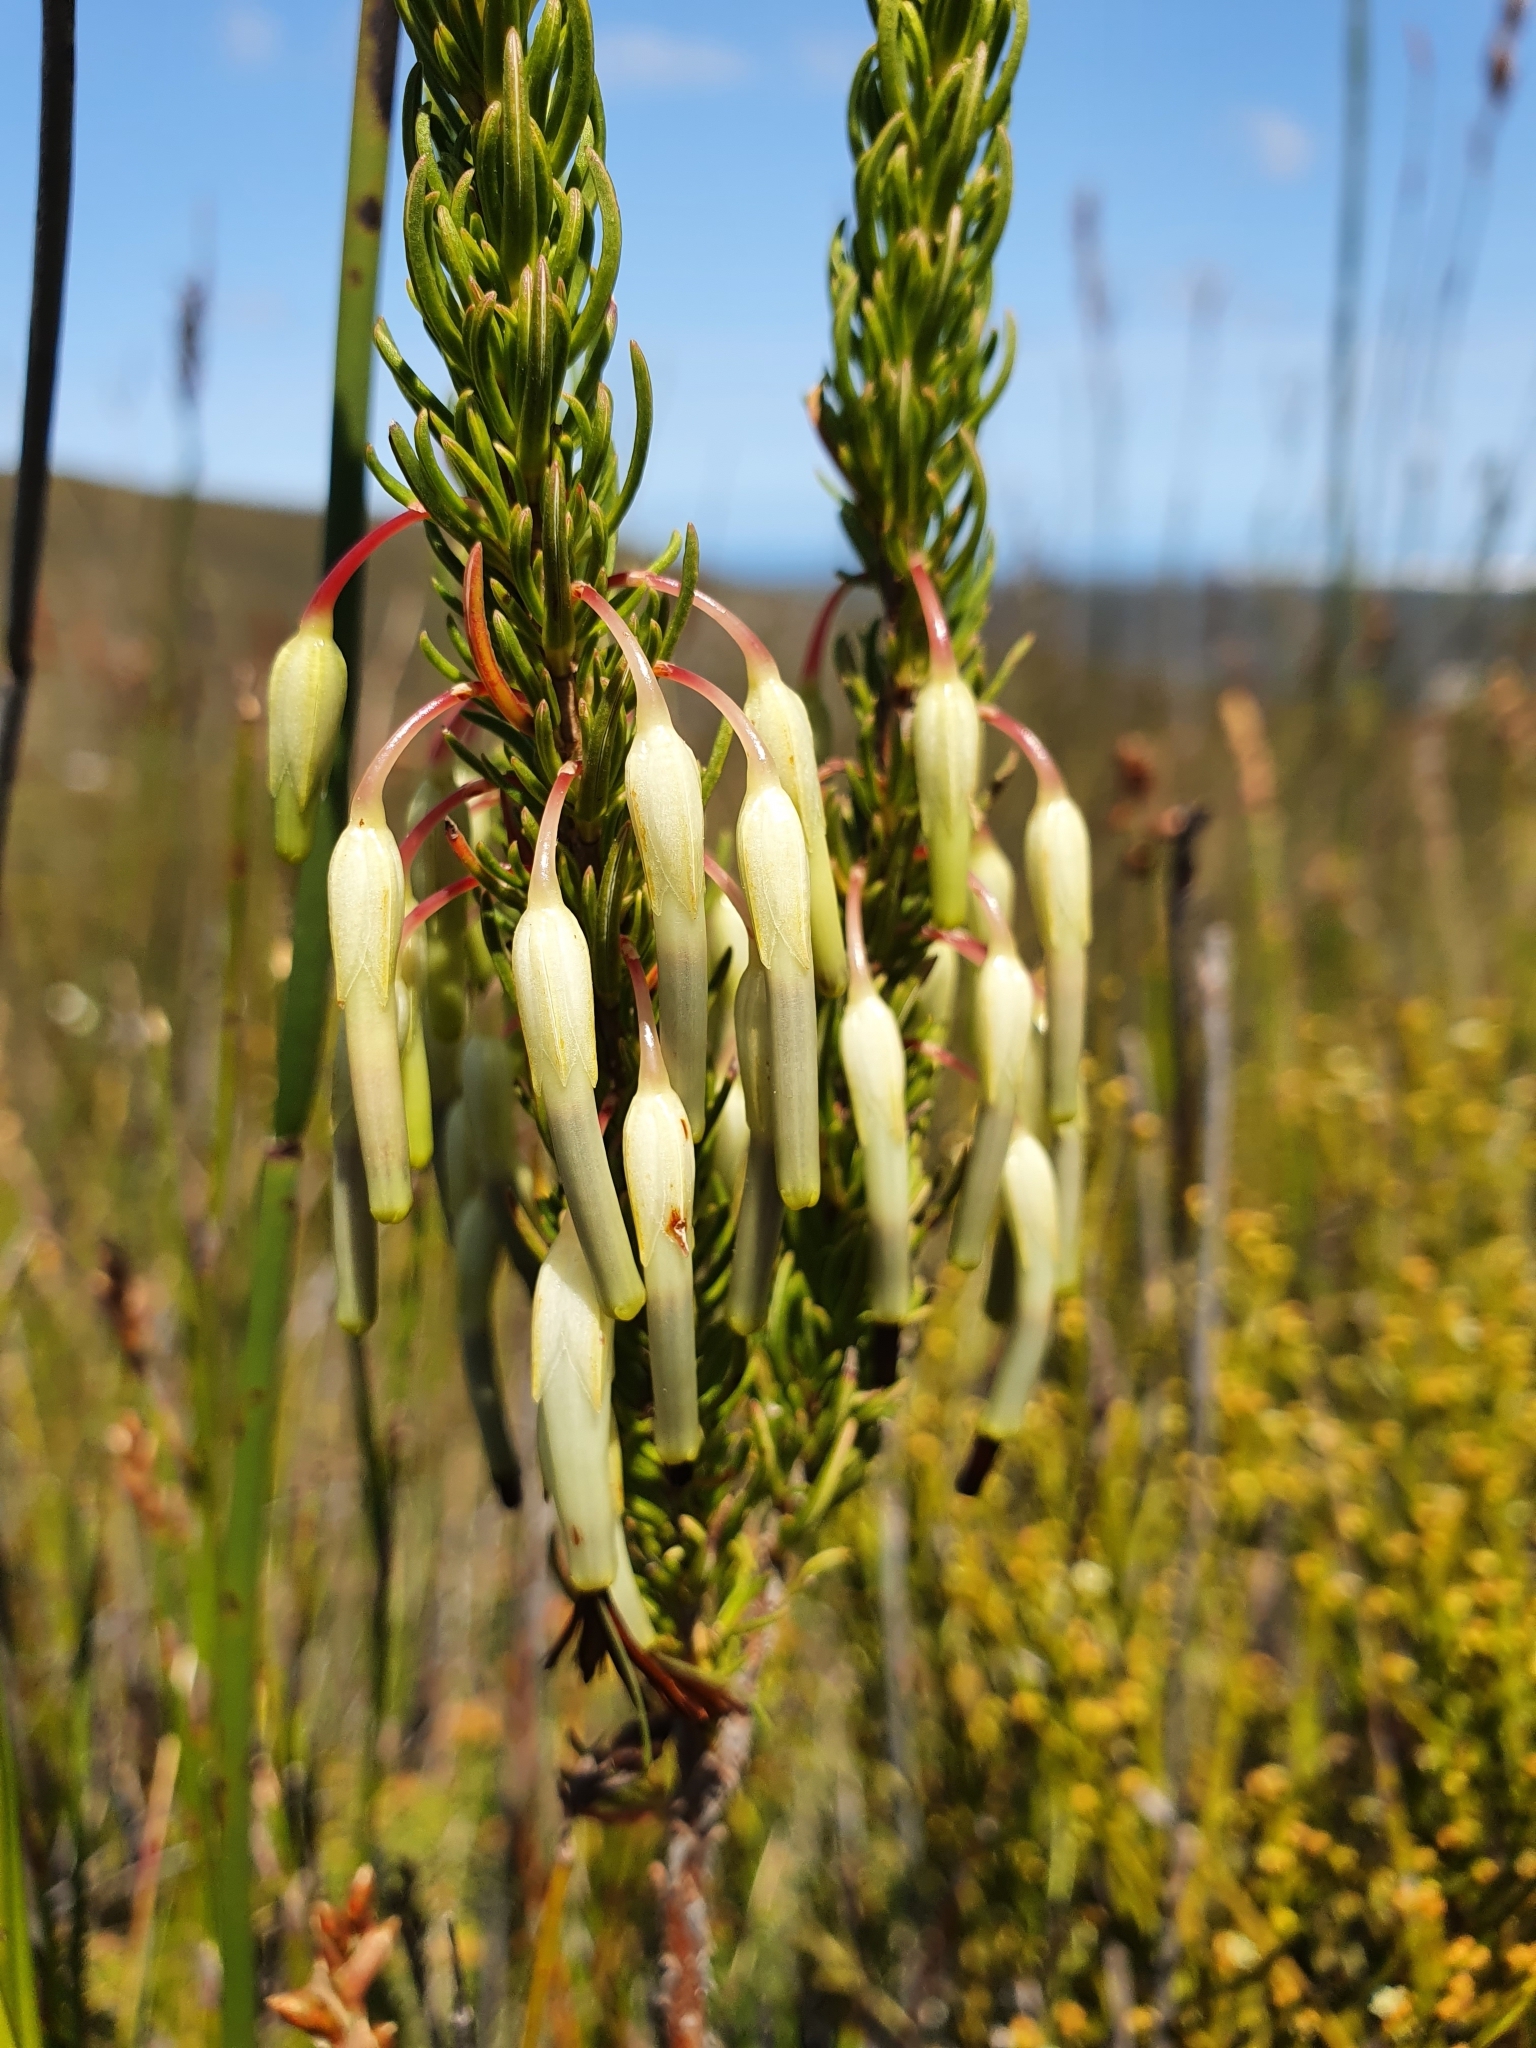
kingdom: Plantae
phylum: Tracheophyta
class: Magnoliopsida
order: Ericales
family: Ericaceae
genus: Erica
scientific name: Erica plukenetii
